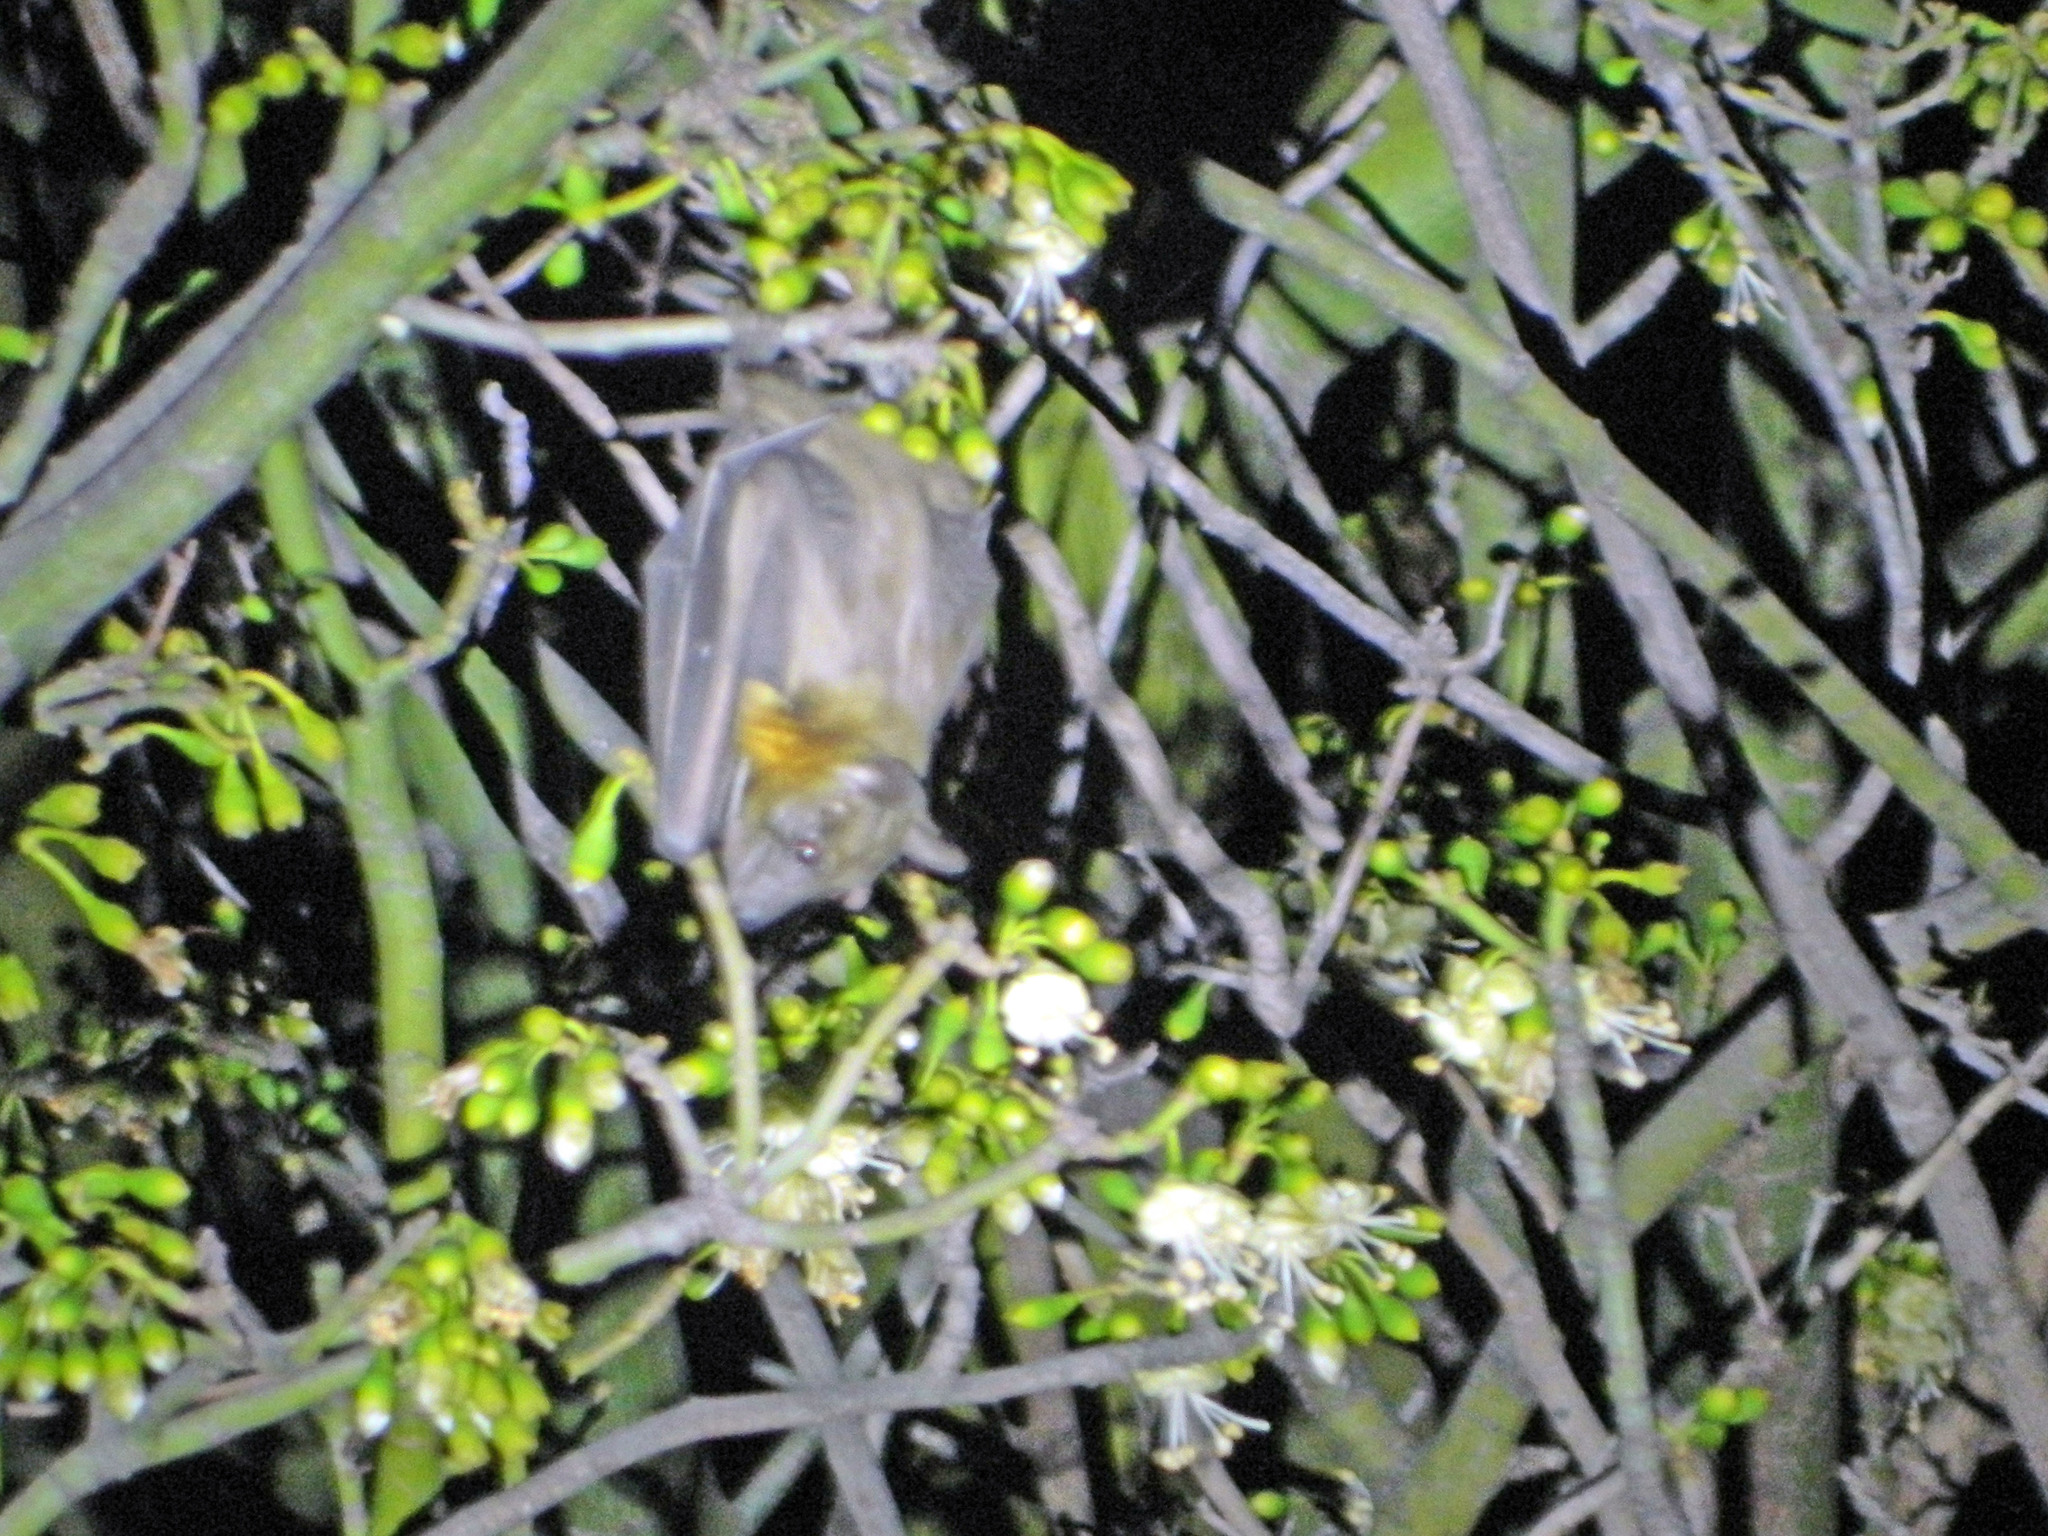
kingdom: Animalia
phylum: Chordata
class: Mammalia
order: Chiroptera
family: Pteropodidae
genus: Eidolon
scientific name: Eidolon dupreanum
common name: Madagascan fruit bat
